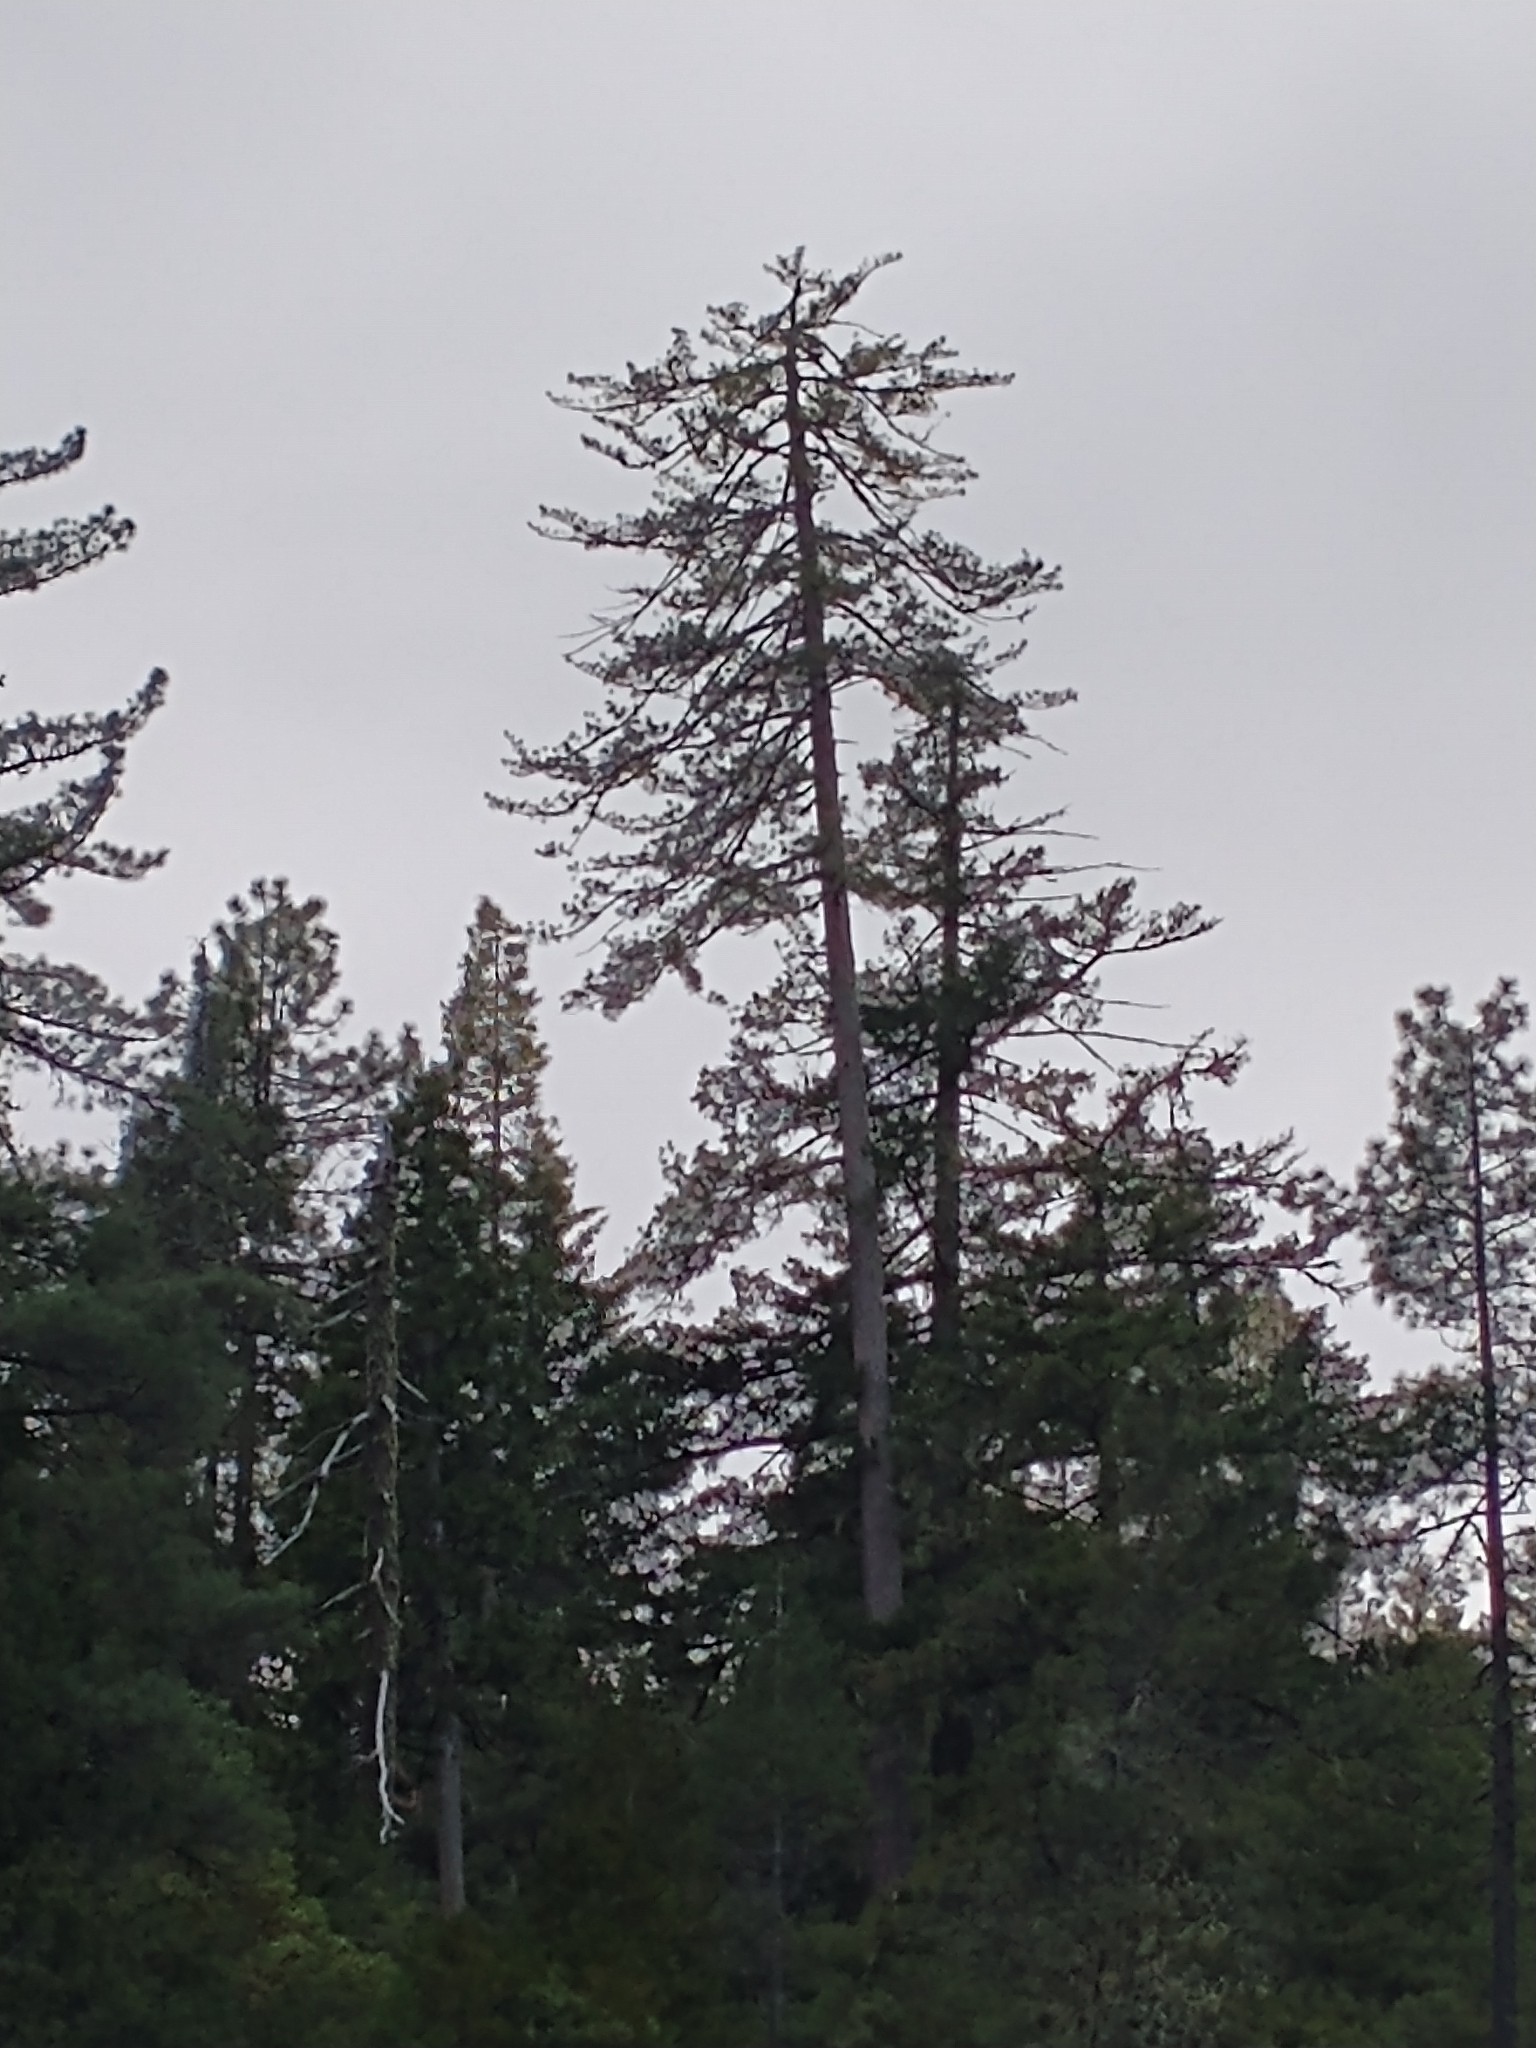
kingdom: Plantae
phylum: Tracheophyta
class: Pinopsida
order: Pinales
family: Pinaceae
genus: Pinus
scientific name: Pinus lambertiana
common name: Sugar pine
